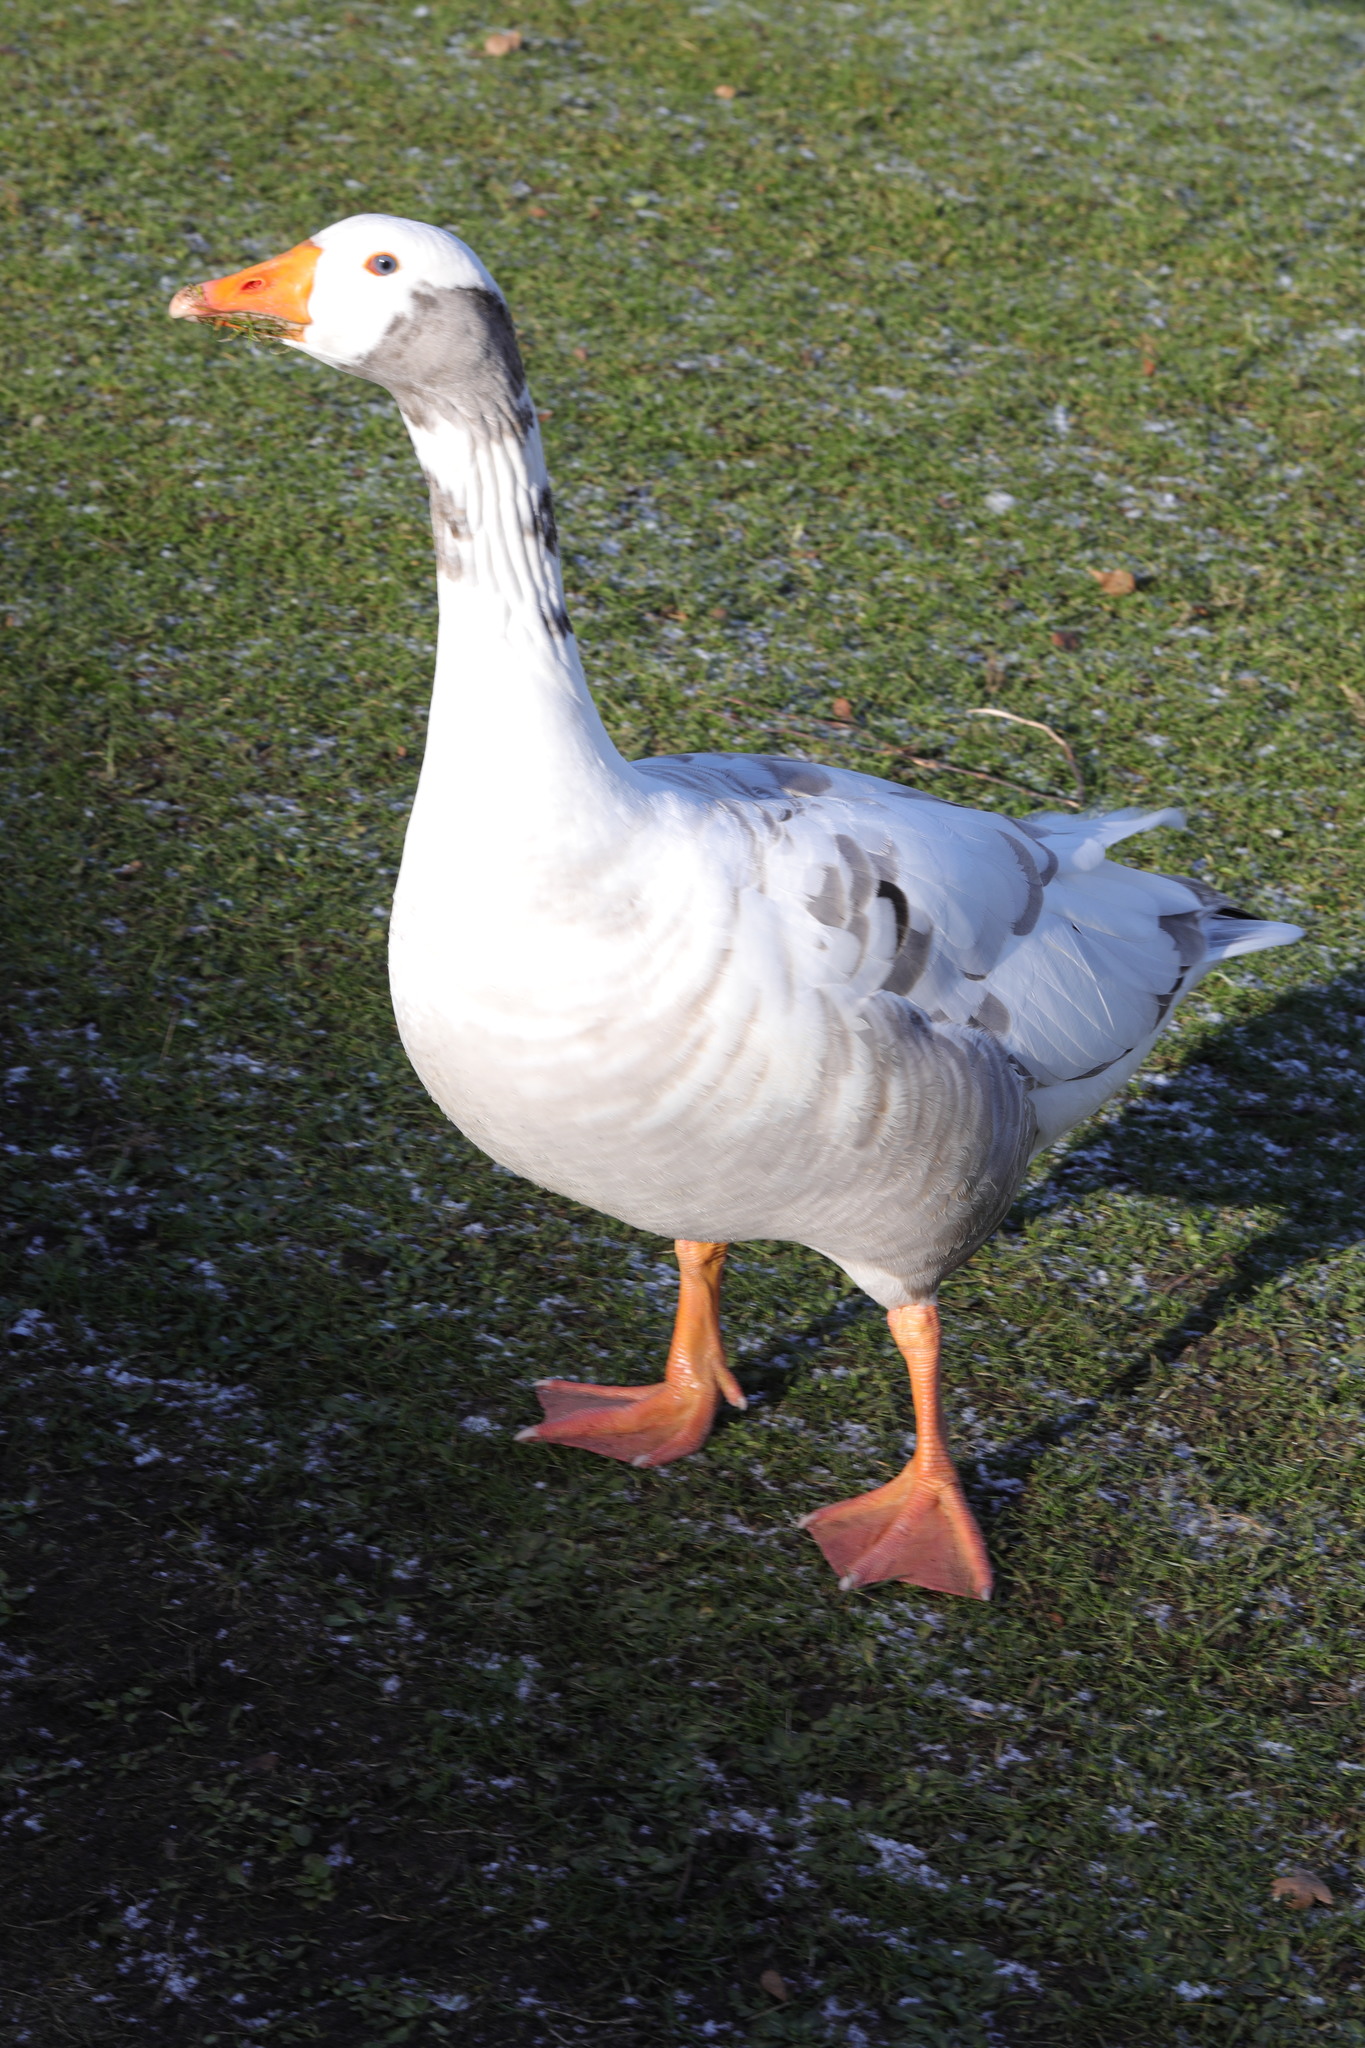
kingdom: Animalia
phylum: Chordata
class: Aves
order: Anseriformes
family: Anatidae
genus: Anser
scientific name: Anser anser
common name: Greylag goose
